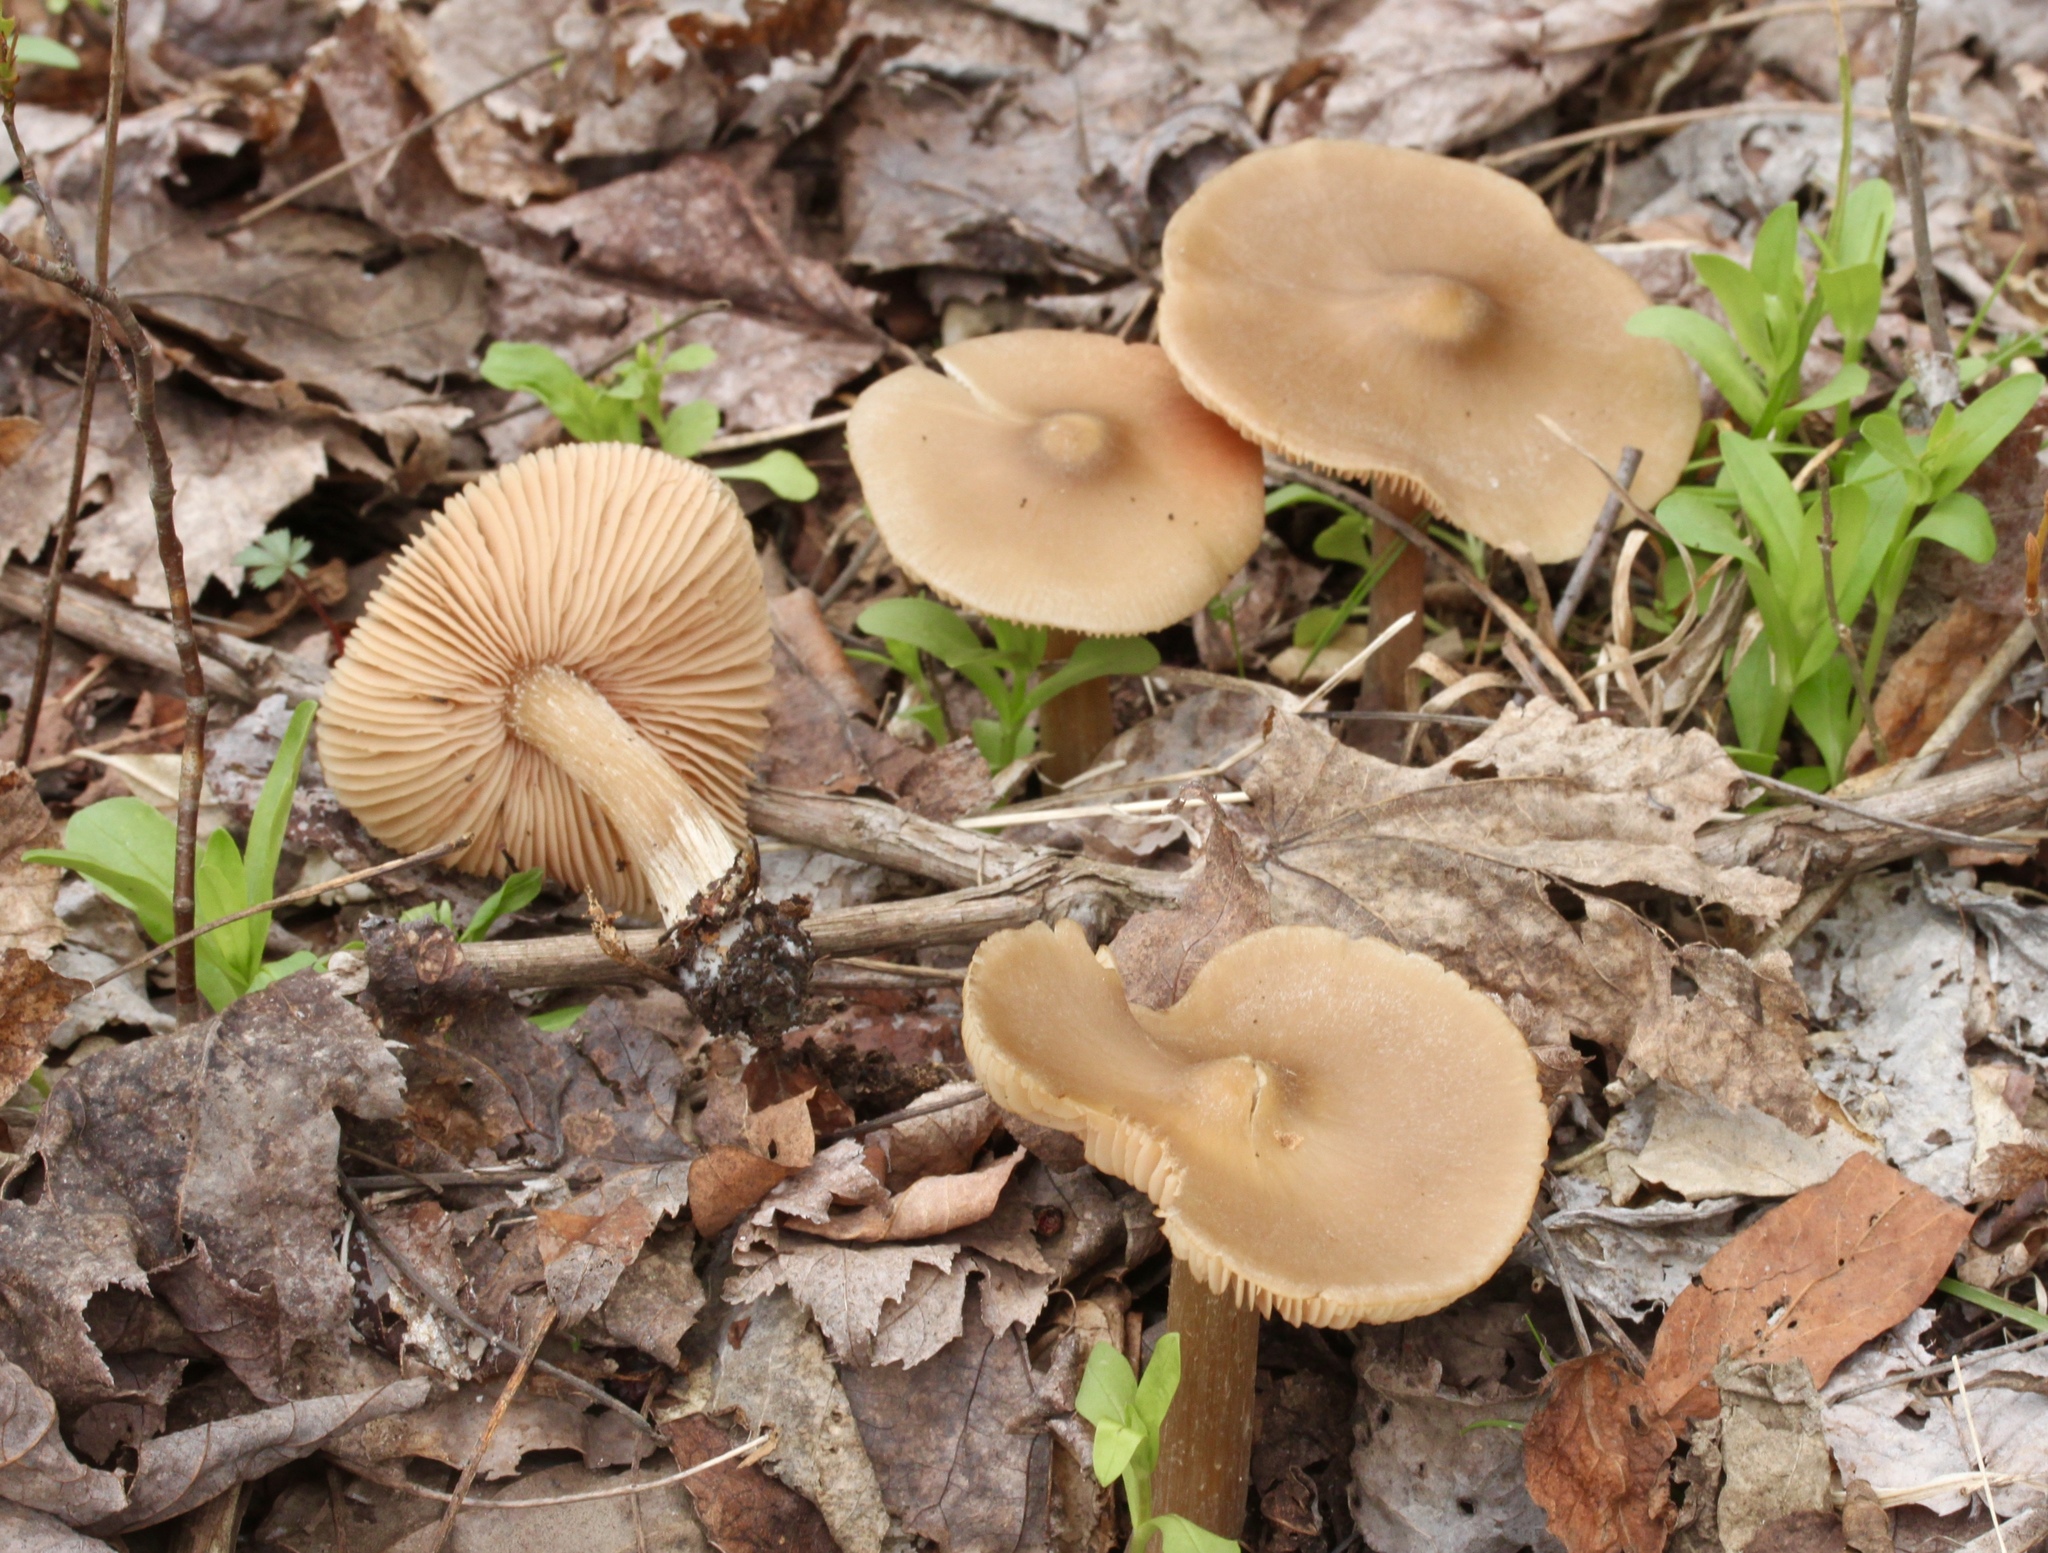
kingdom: Fungi
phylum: Basidiomycota
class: Agaricomycetes
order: Agaricales
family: Entolomataceae
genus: Entoloma
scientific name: Entoloma vernum
